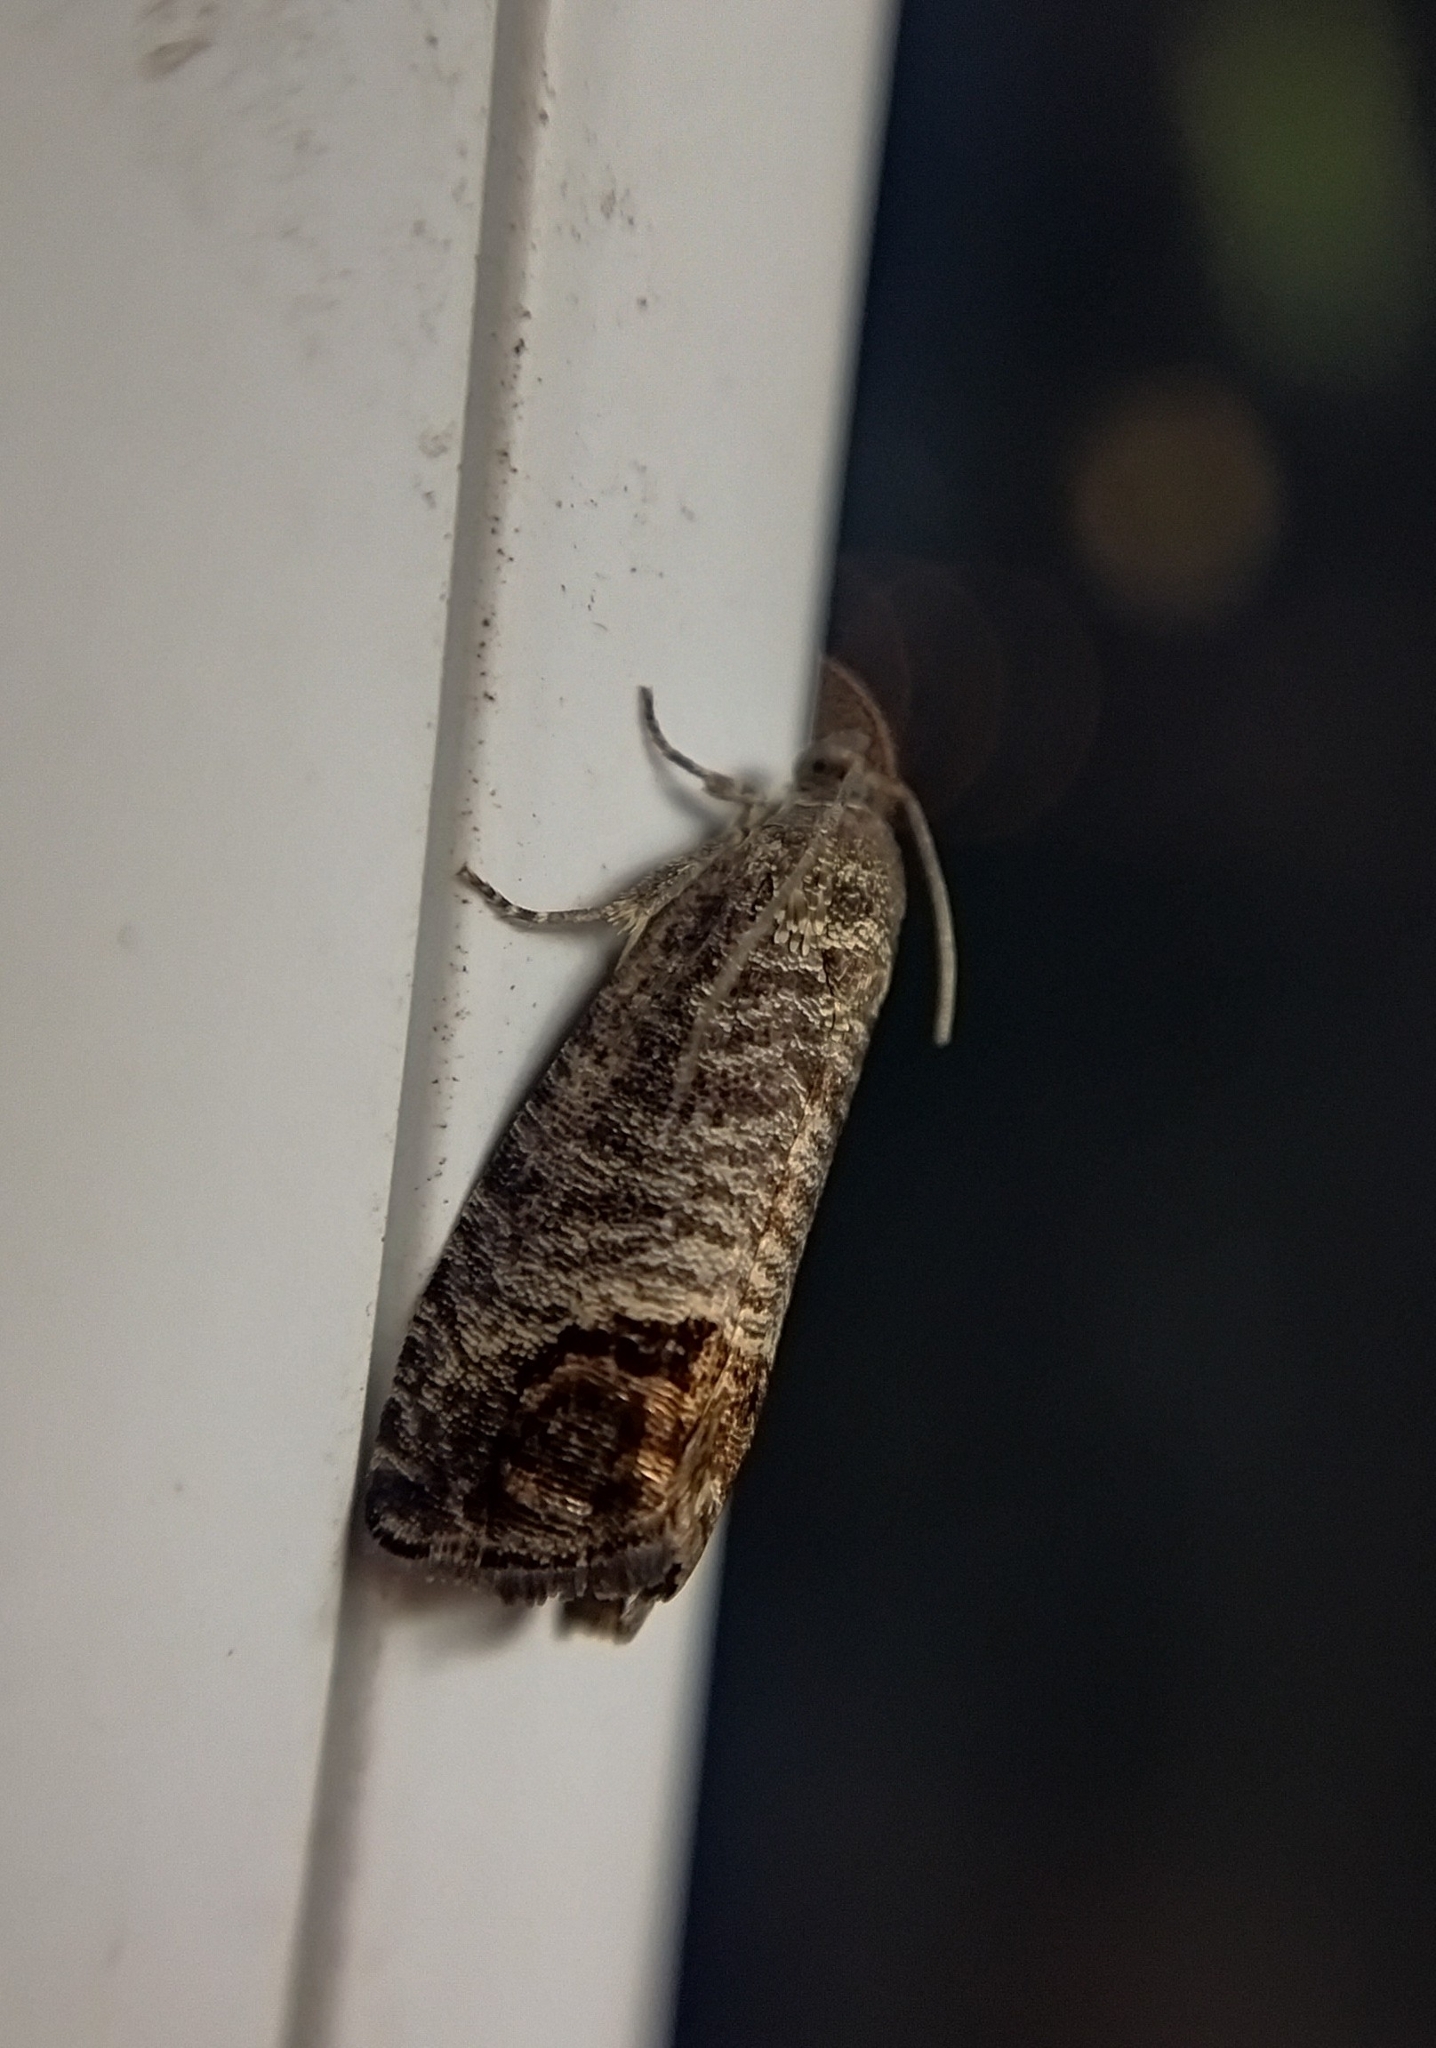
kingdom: Animalia
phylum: Arthropoda
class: Insecta
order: Lepidoptera
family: Tortricidae
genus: Cydia
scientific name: Cydia pomonella
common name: Codling moth
